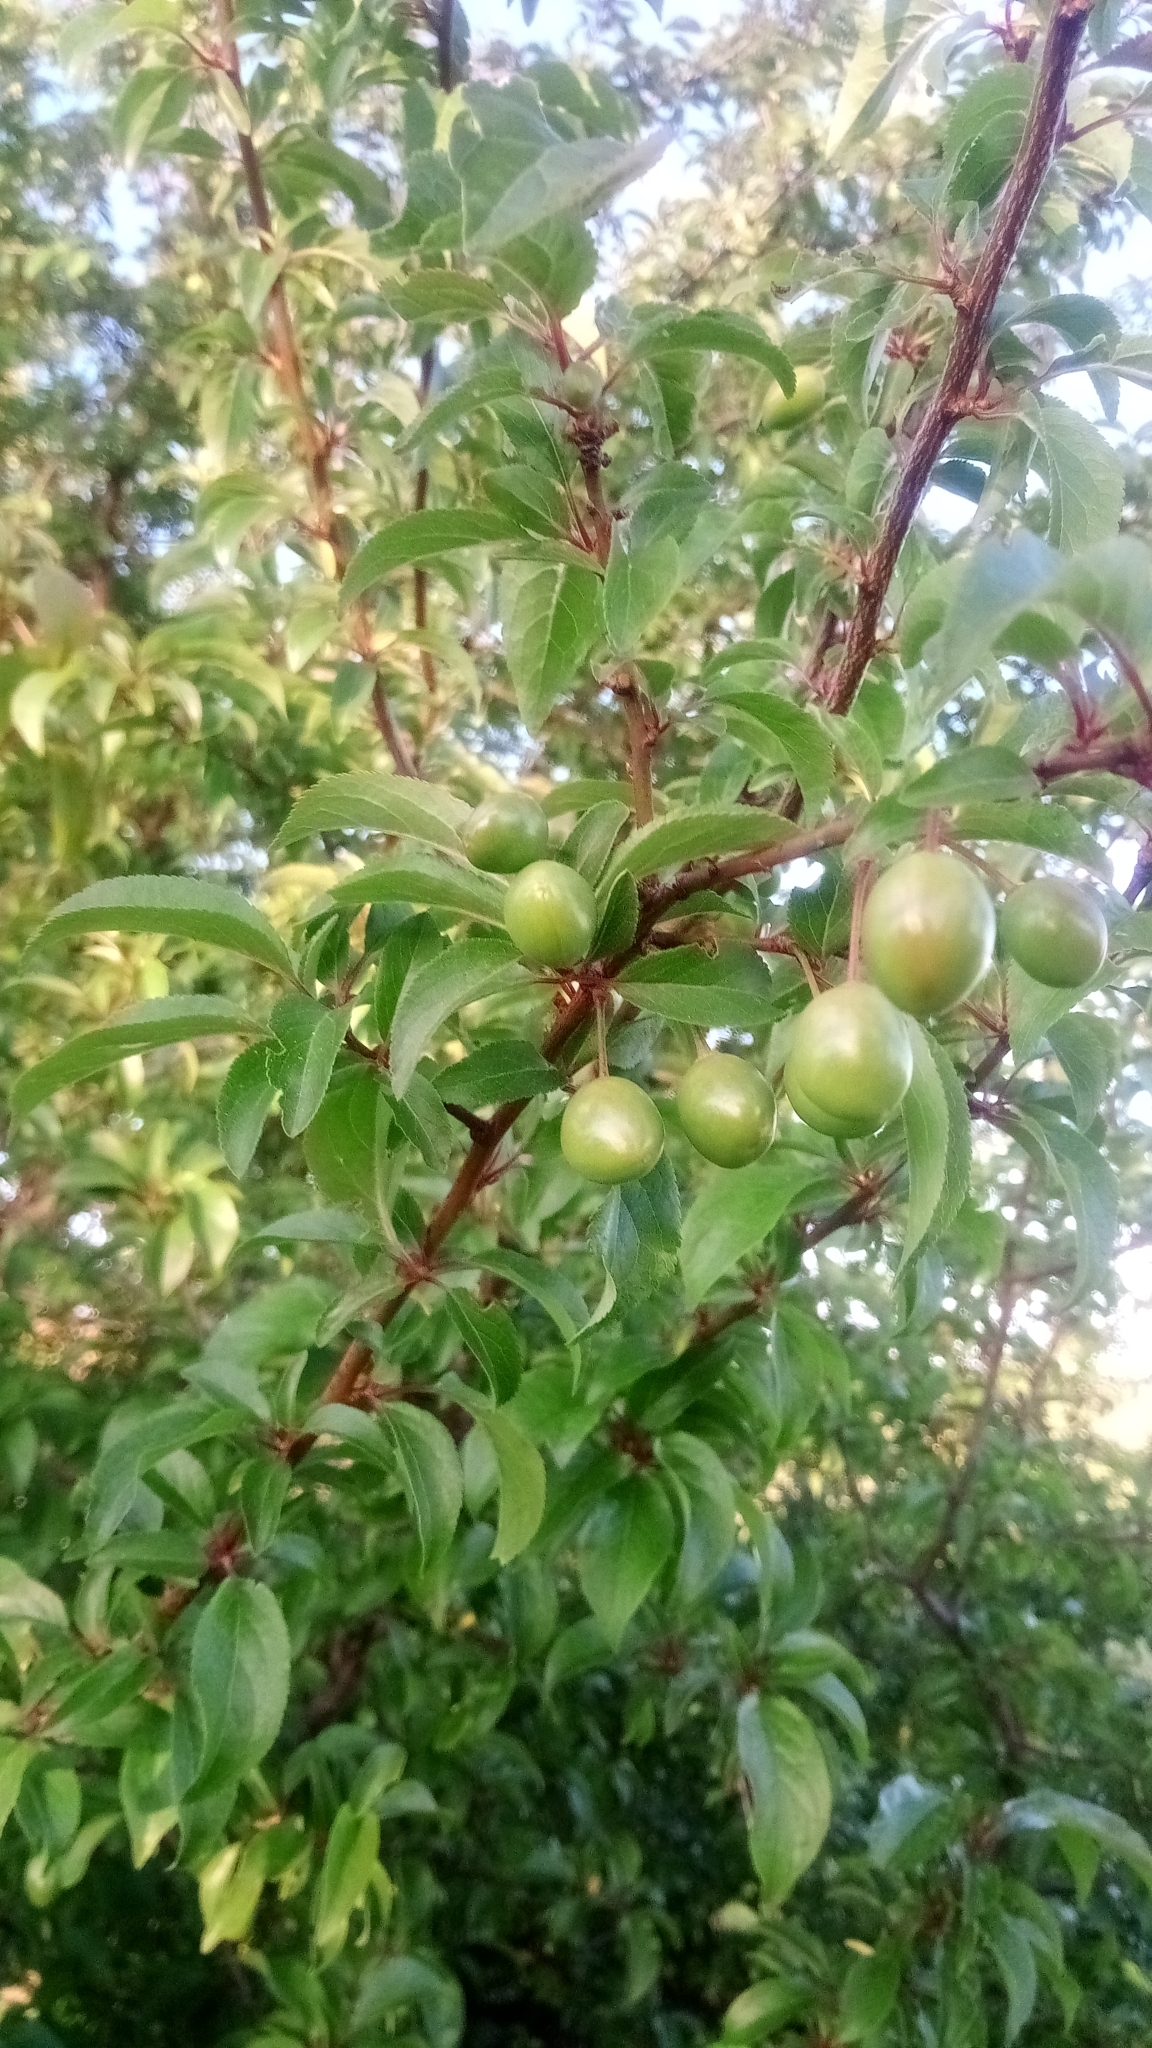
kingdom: Plantae
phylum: Tracheophyta
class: Magnoliopsida
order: Rosales
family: Rosaceae
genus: Prunus
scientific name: Prunus cerasifera
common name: Cherry plum
